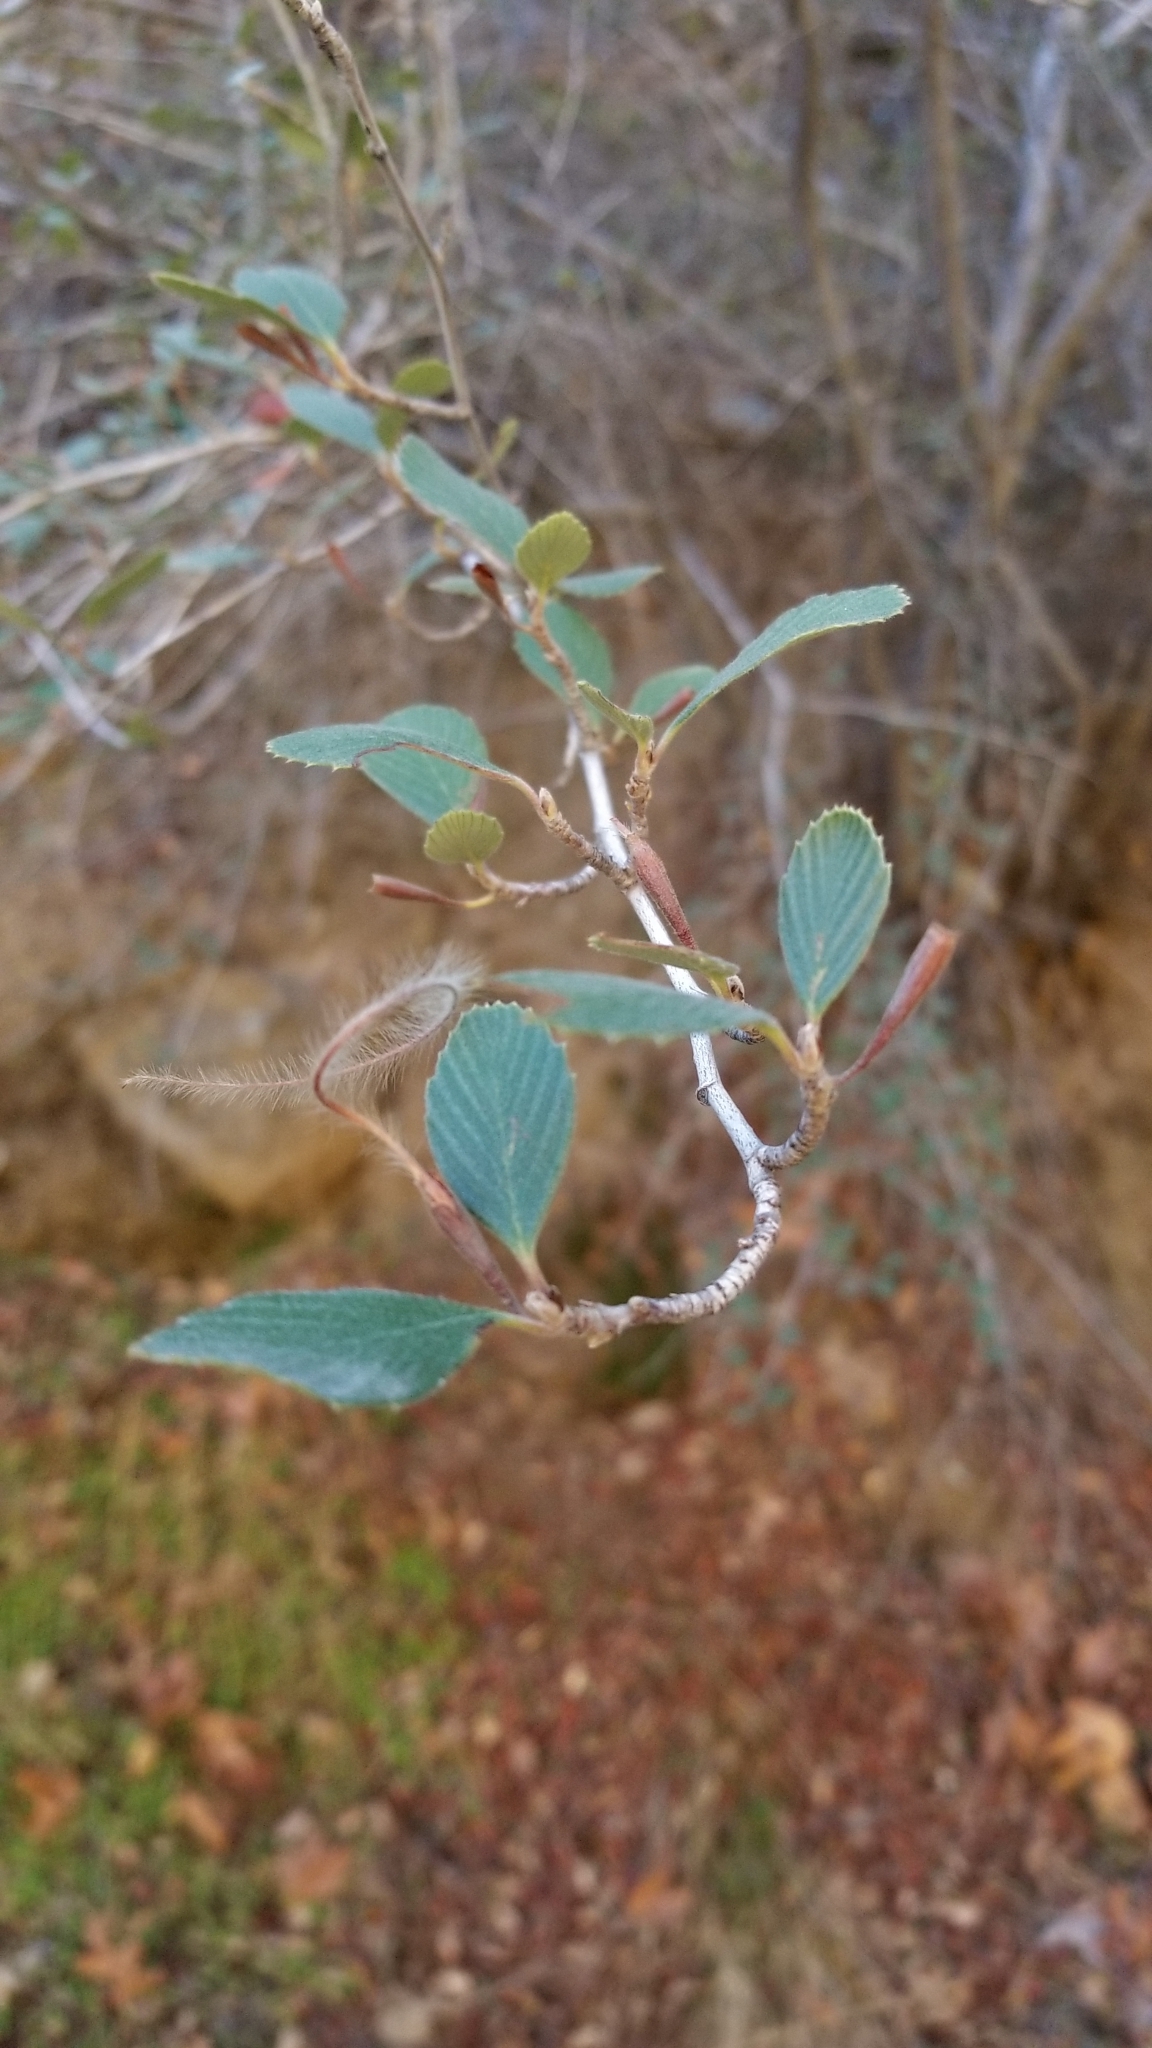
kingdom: Plantae
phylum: Tracheophyta
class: Magnoliopsida
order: Rosales
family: Rosaceae
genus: Cercocarpus
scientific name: Cercocarpus betuloides
